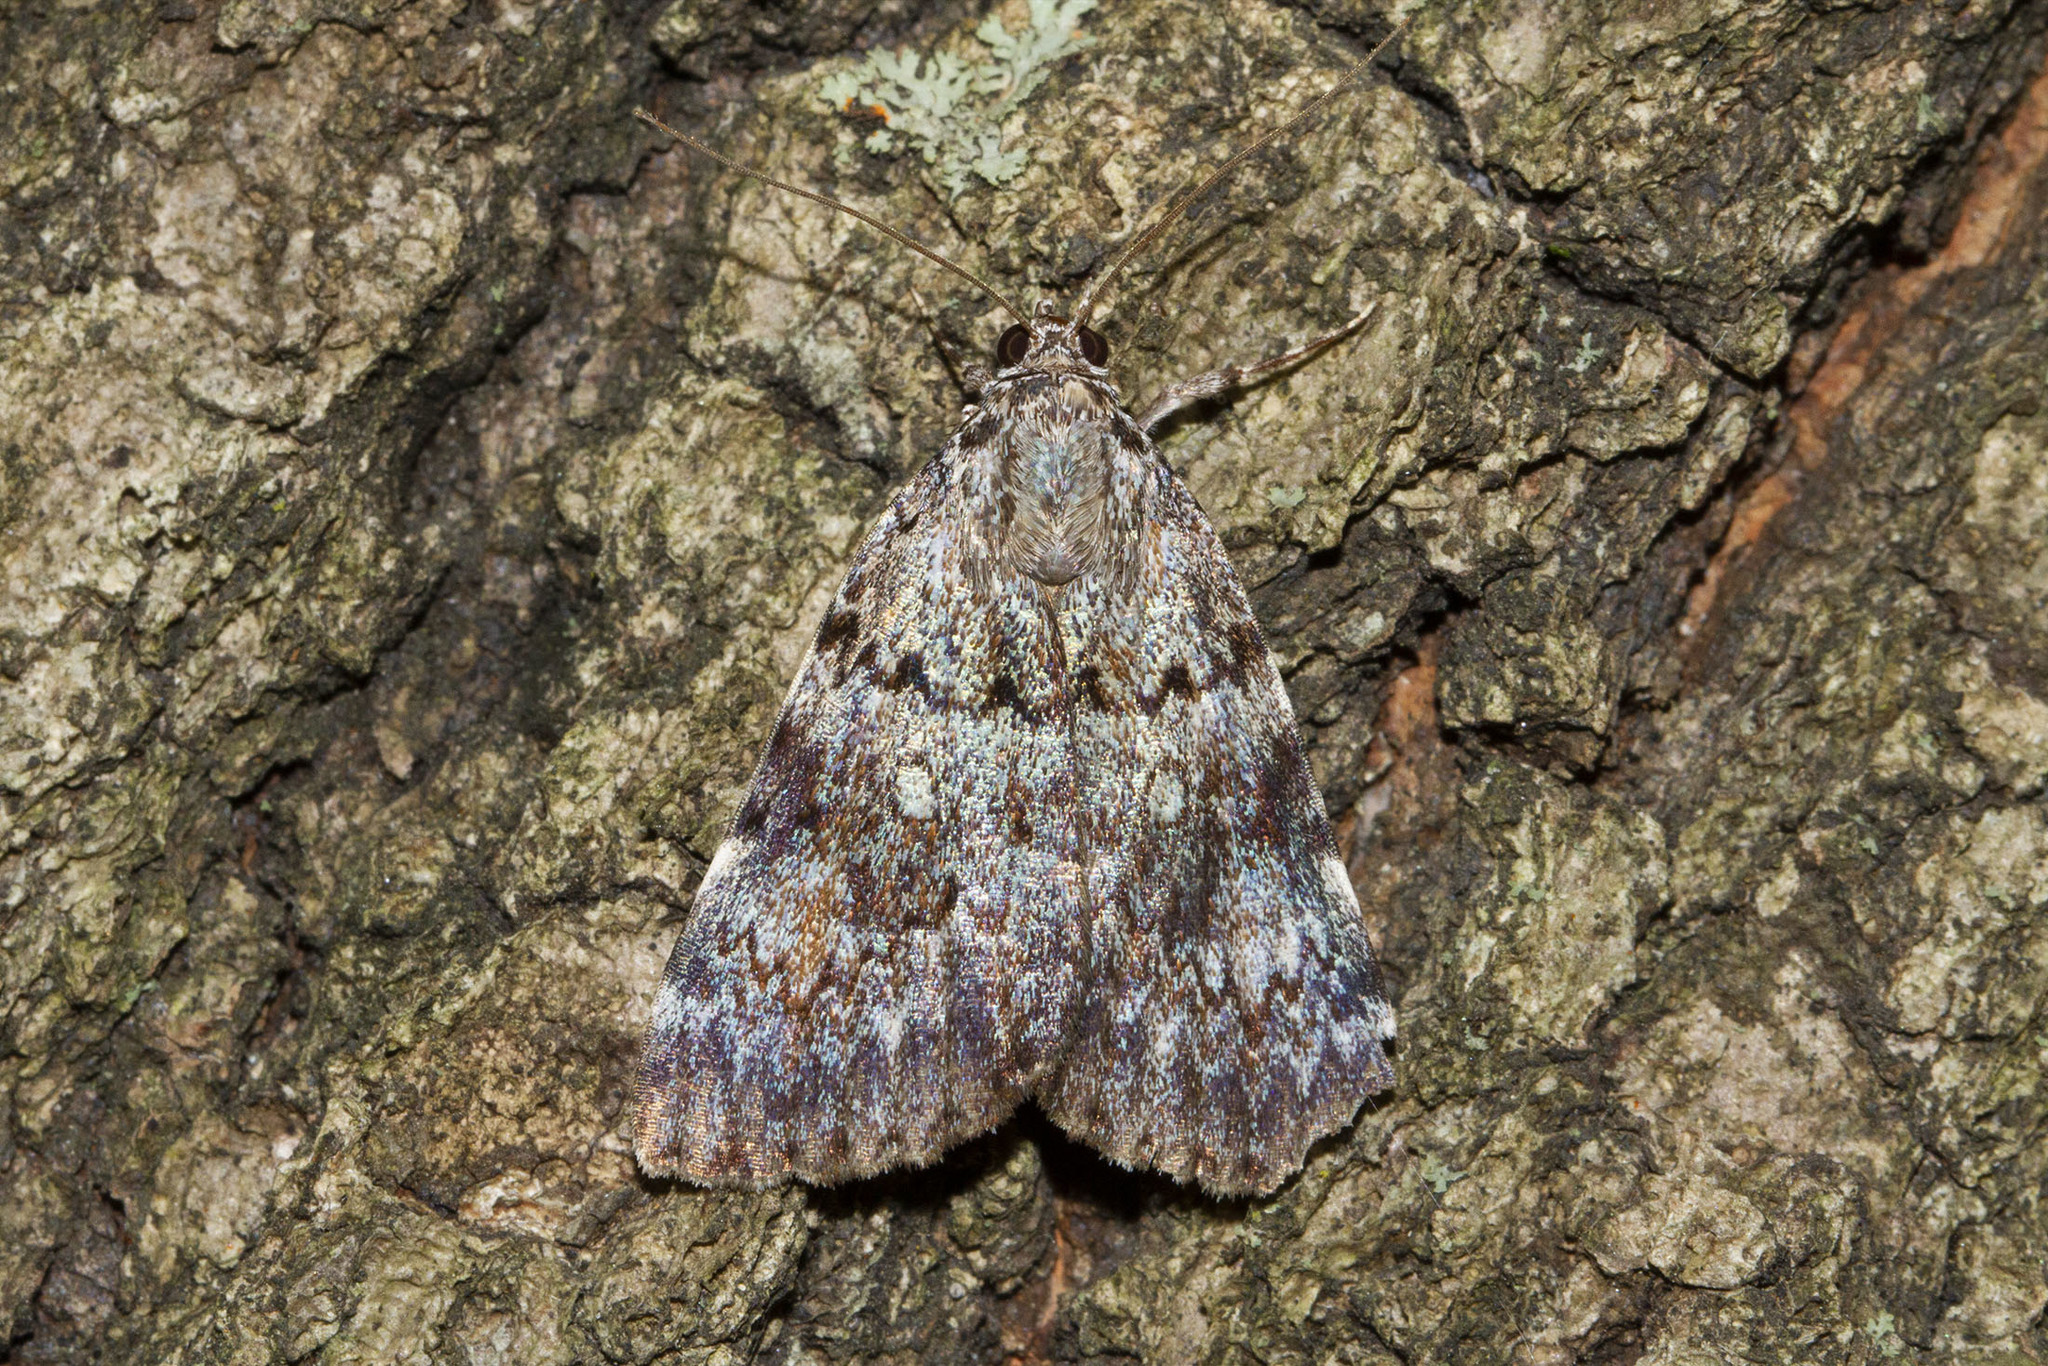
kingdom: Animalia
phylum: Arthropoda
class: Insecta
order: Lepidoptera
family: Erebidae
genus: Catocala
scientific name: Catocala lineella
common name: Little lined underwing
